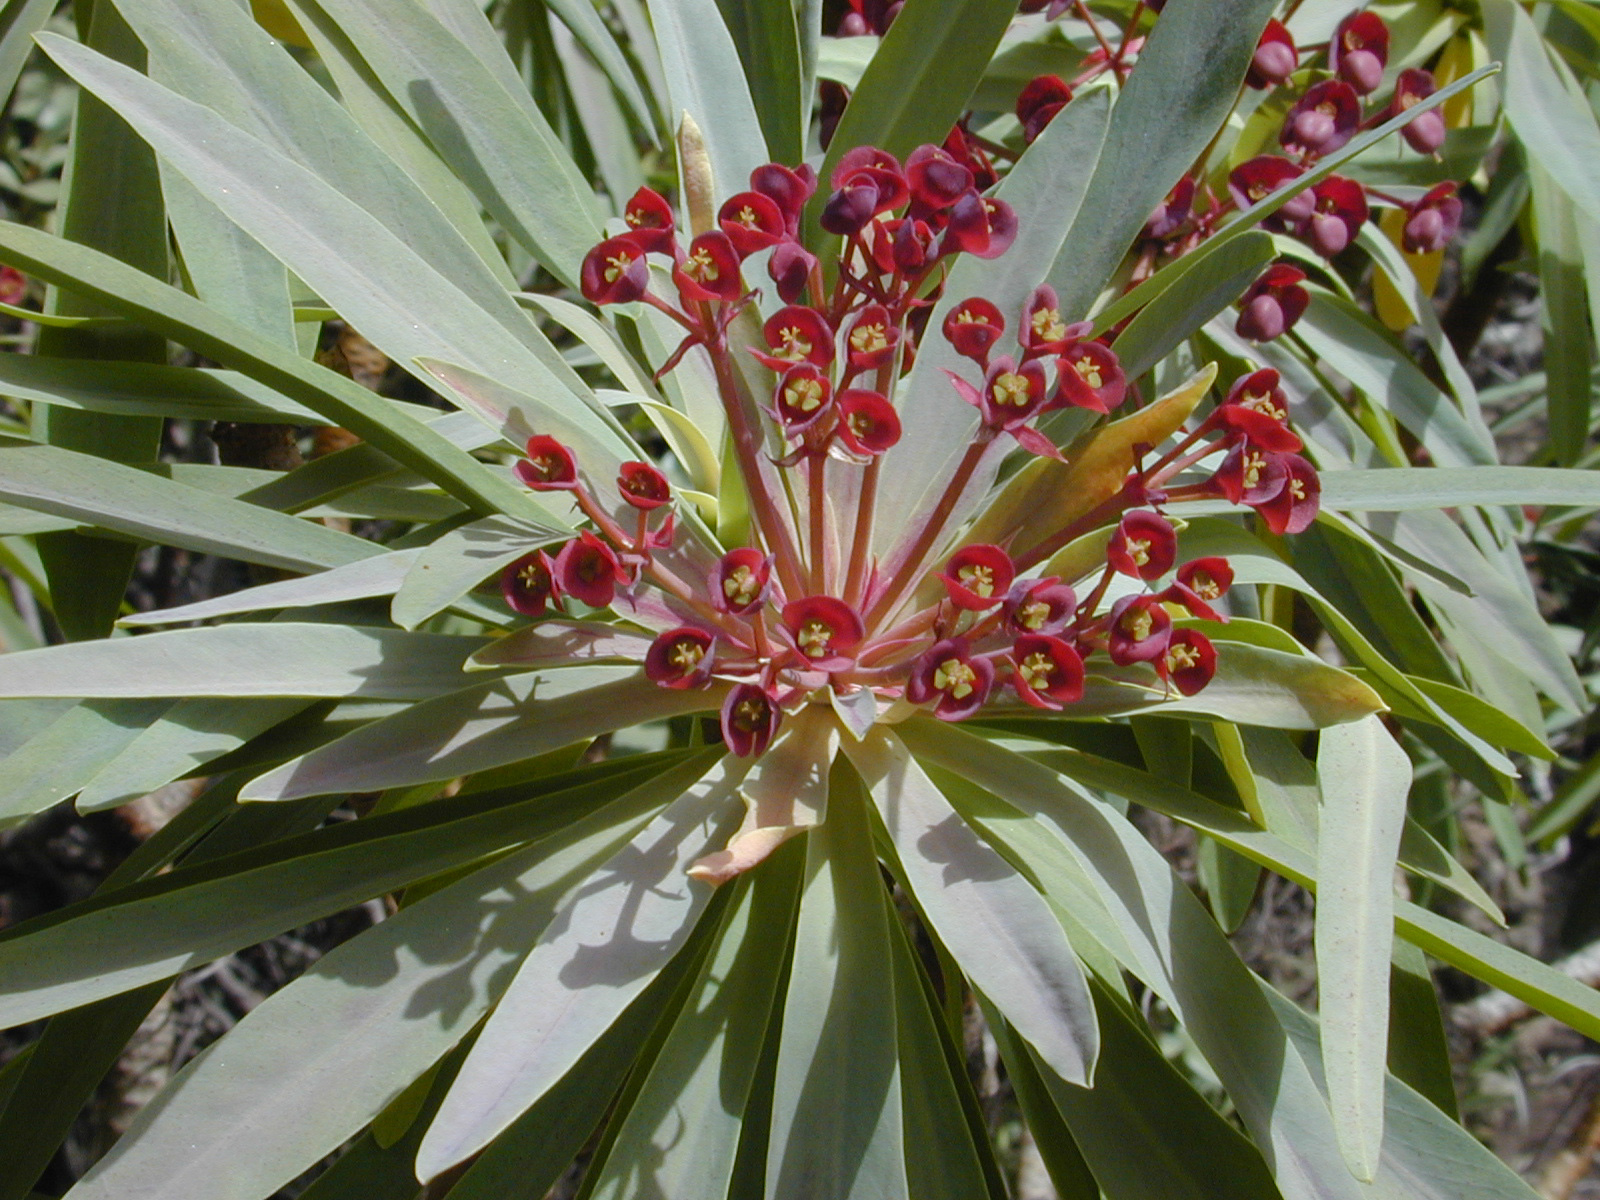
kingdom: Plantae
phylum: Tracheophyta
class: Magnoliopsida
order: Malpighiales
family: Euphorbiaceae
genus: Euphorbia
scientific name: Euphorbia atropurpurea
